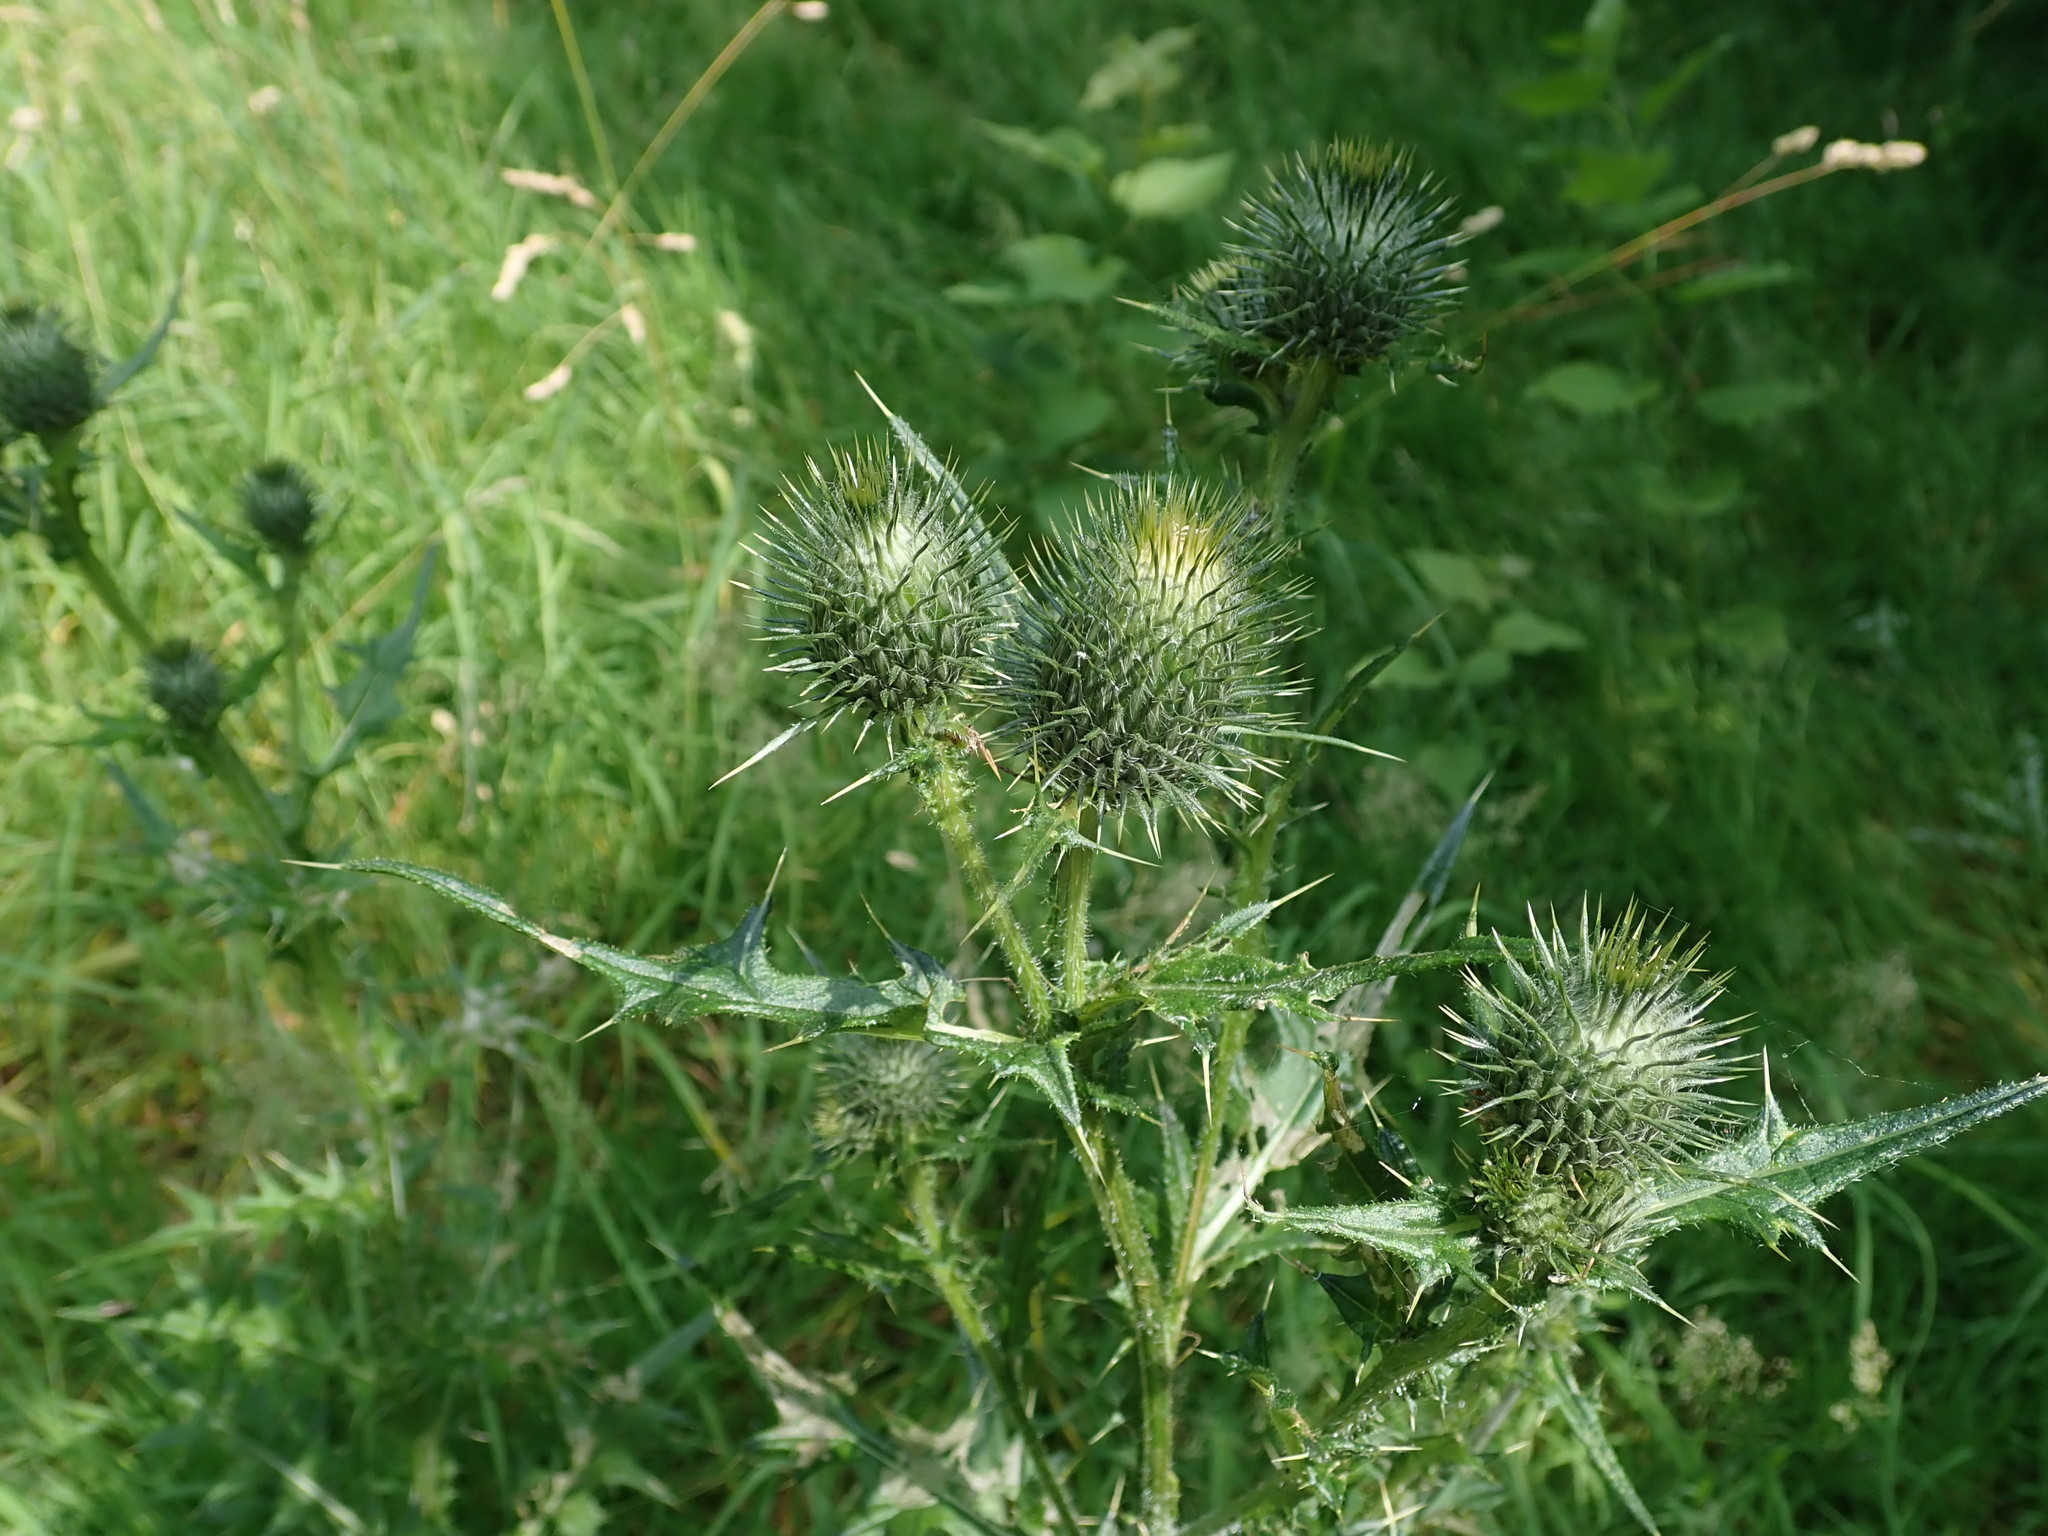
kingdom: Plantae
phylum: Tracheophyta
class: Magnoliopsida
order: Asterales
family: Asteraceae
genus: Cirsium
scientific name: Cirsium vulgare
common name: Bull thistle
